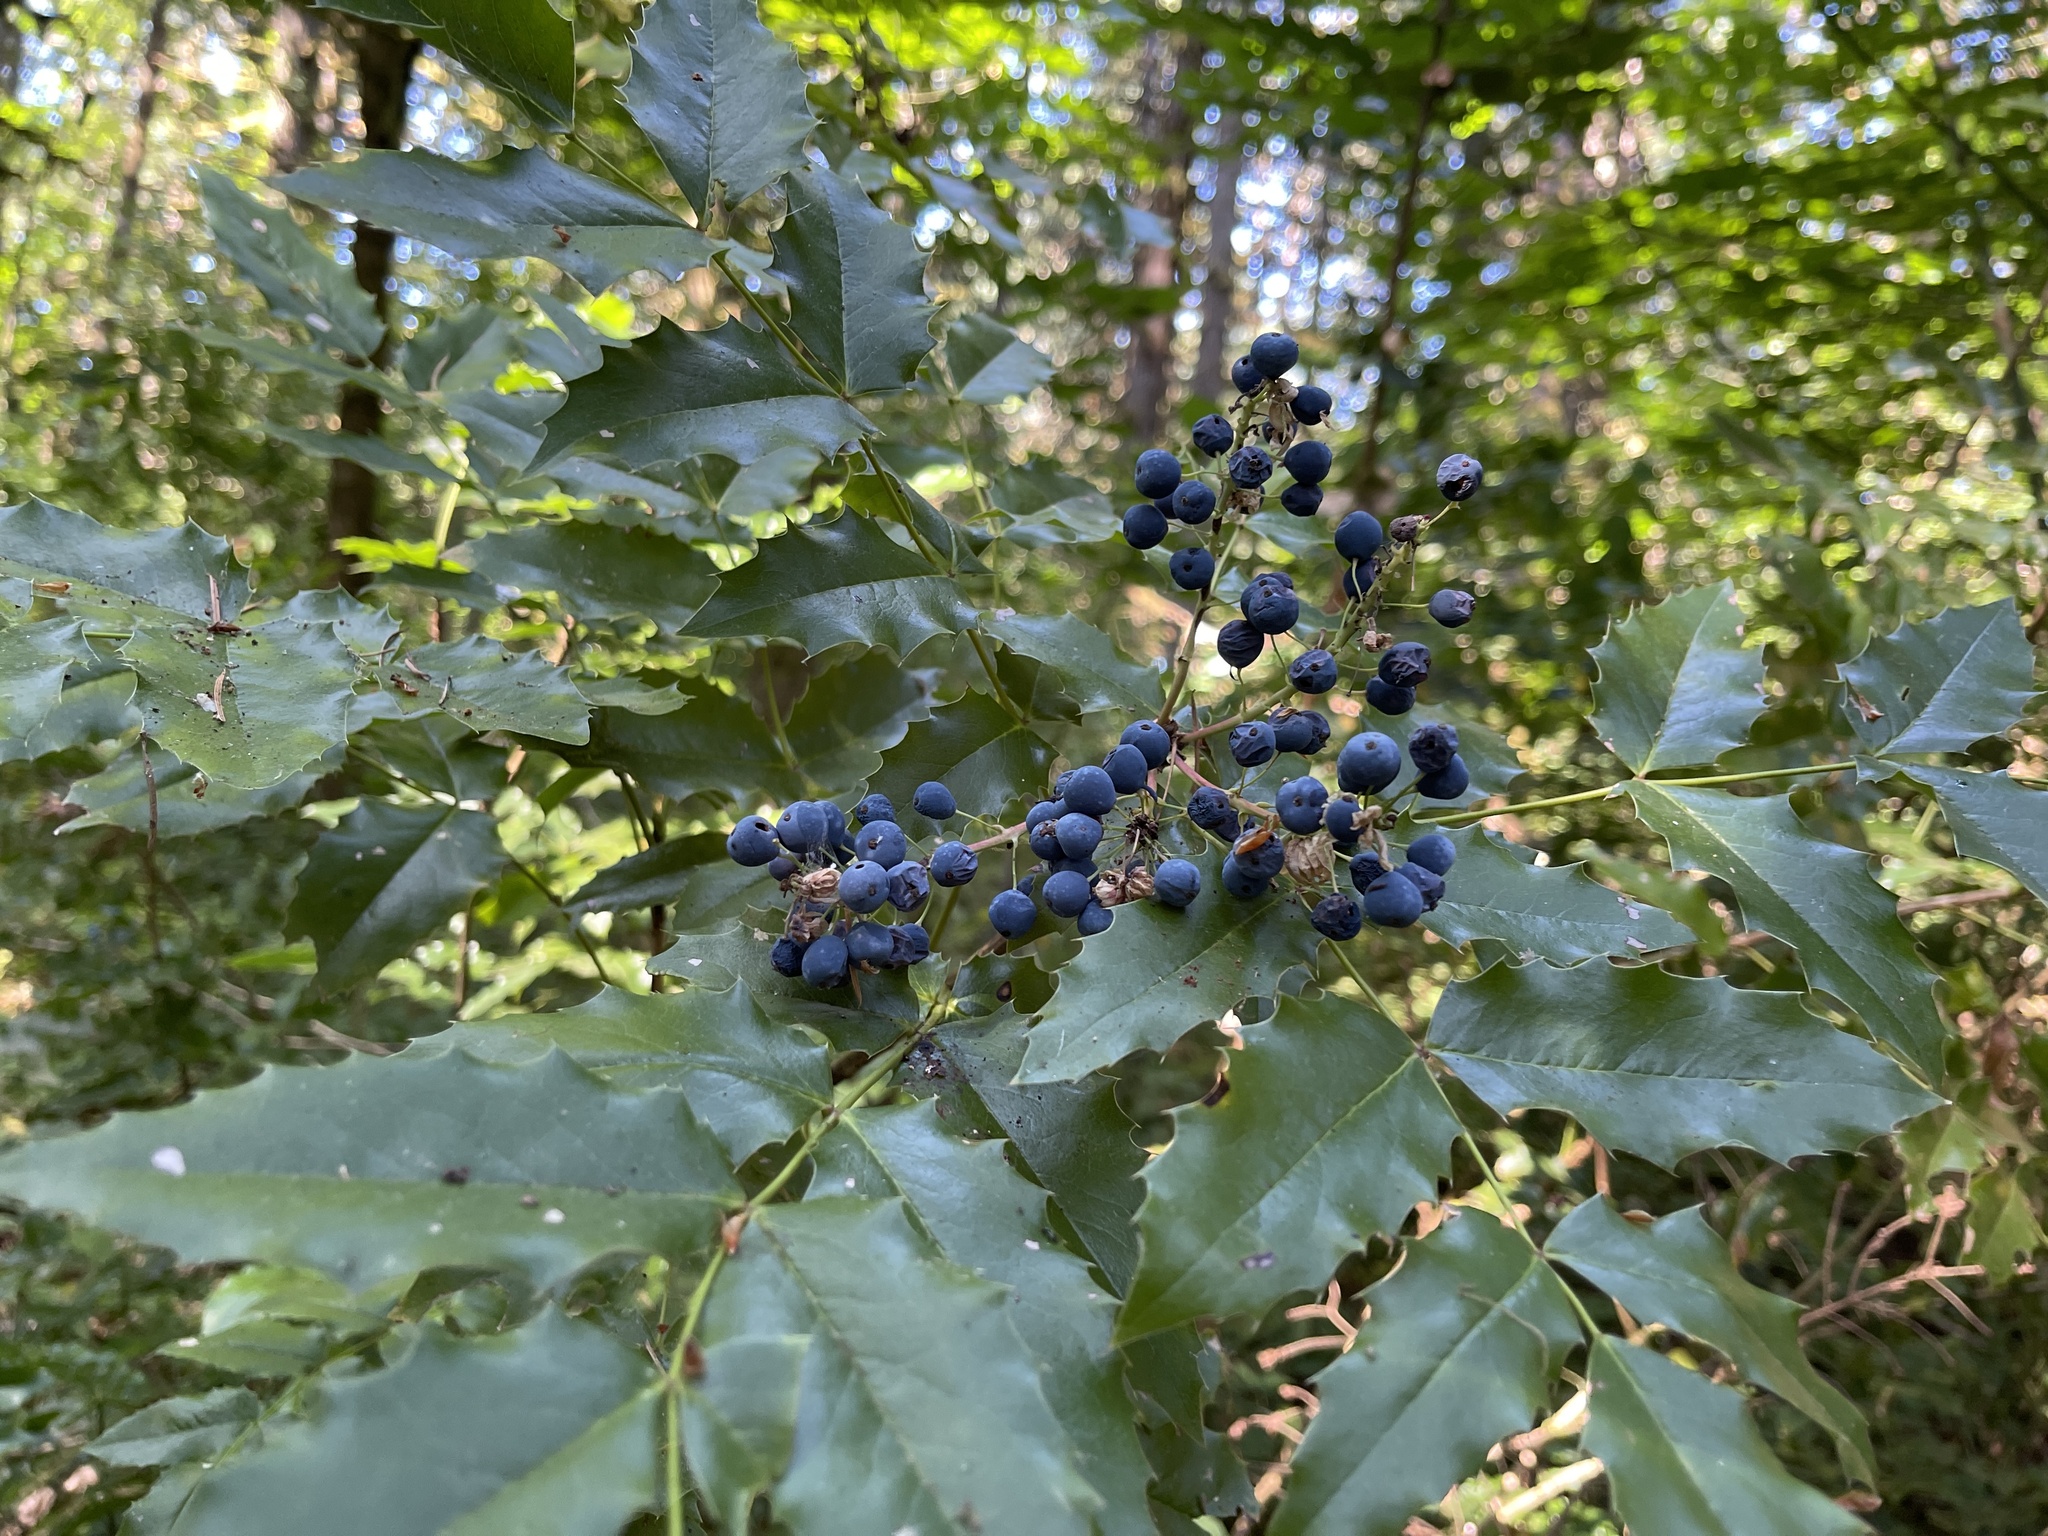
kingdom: Plantae
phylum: Tracheophyta
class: Magnoliopsida
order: Ranunculales
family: Berberidaceae
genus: Mahonia
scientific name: Mahonia aquifolium
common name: Oregon-grape
